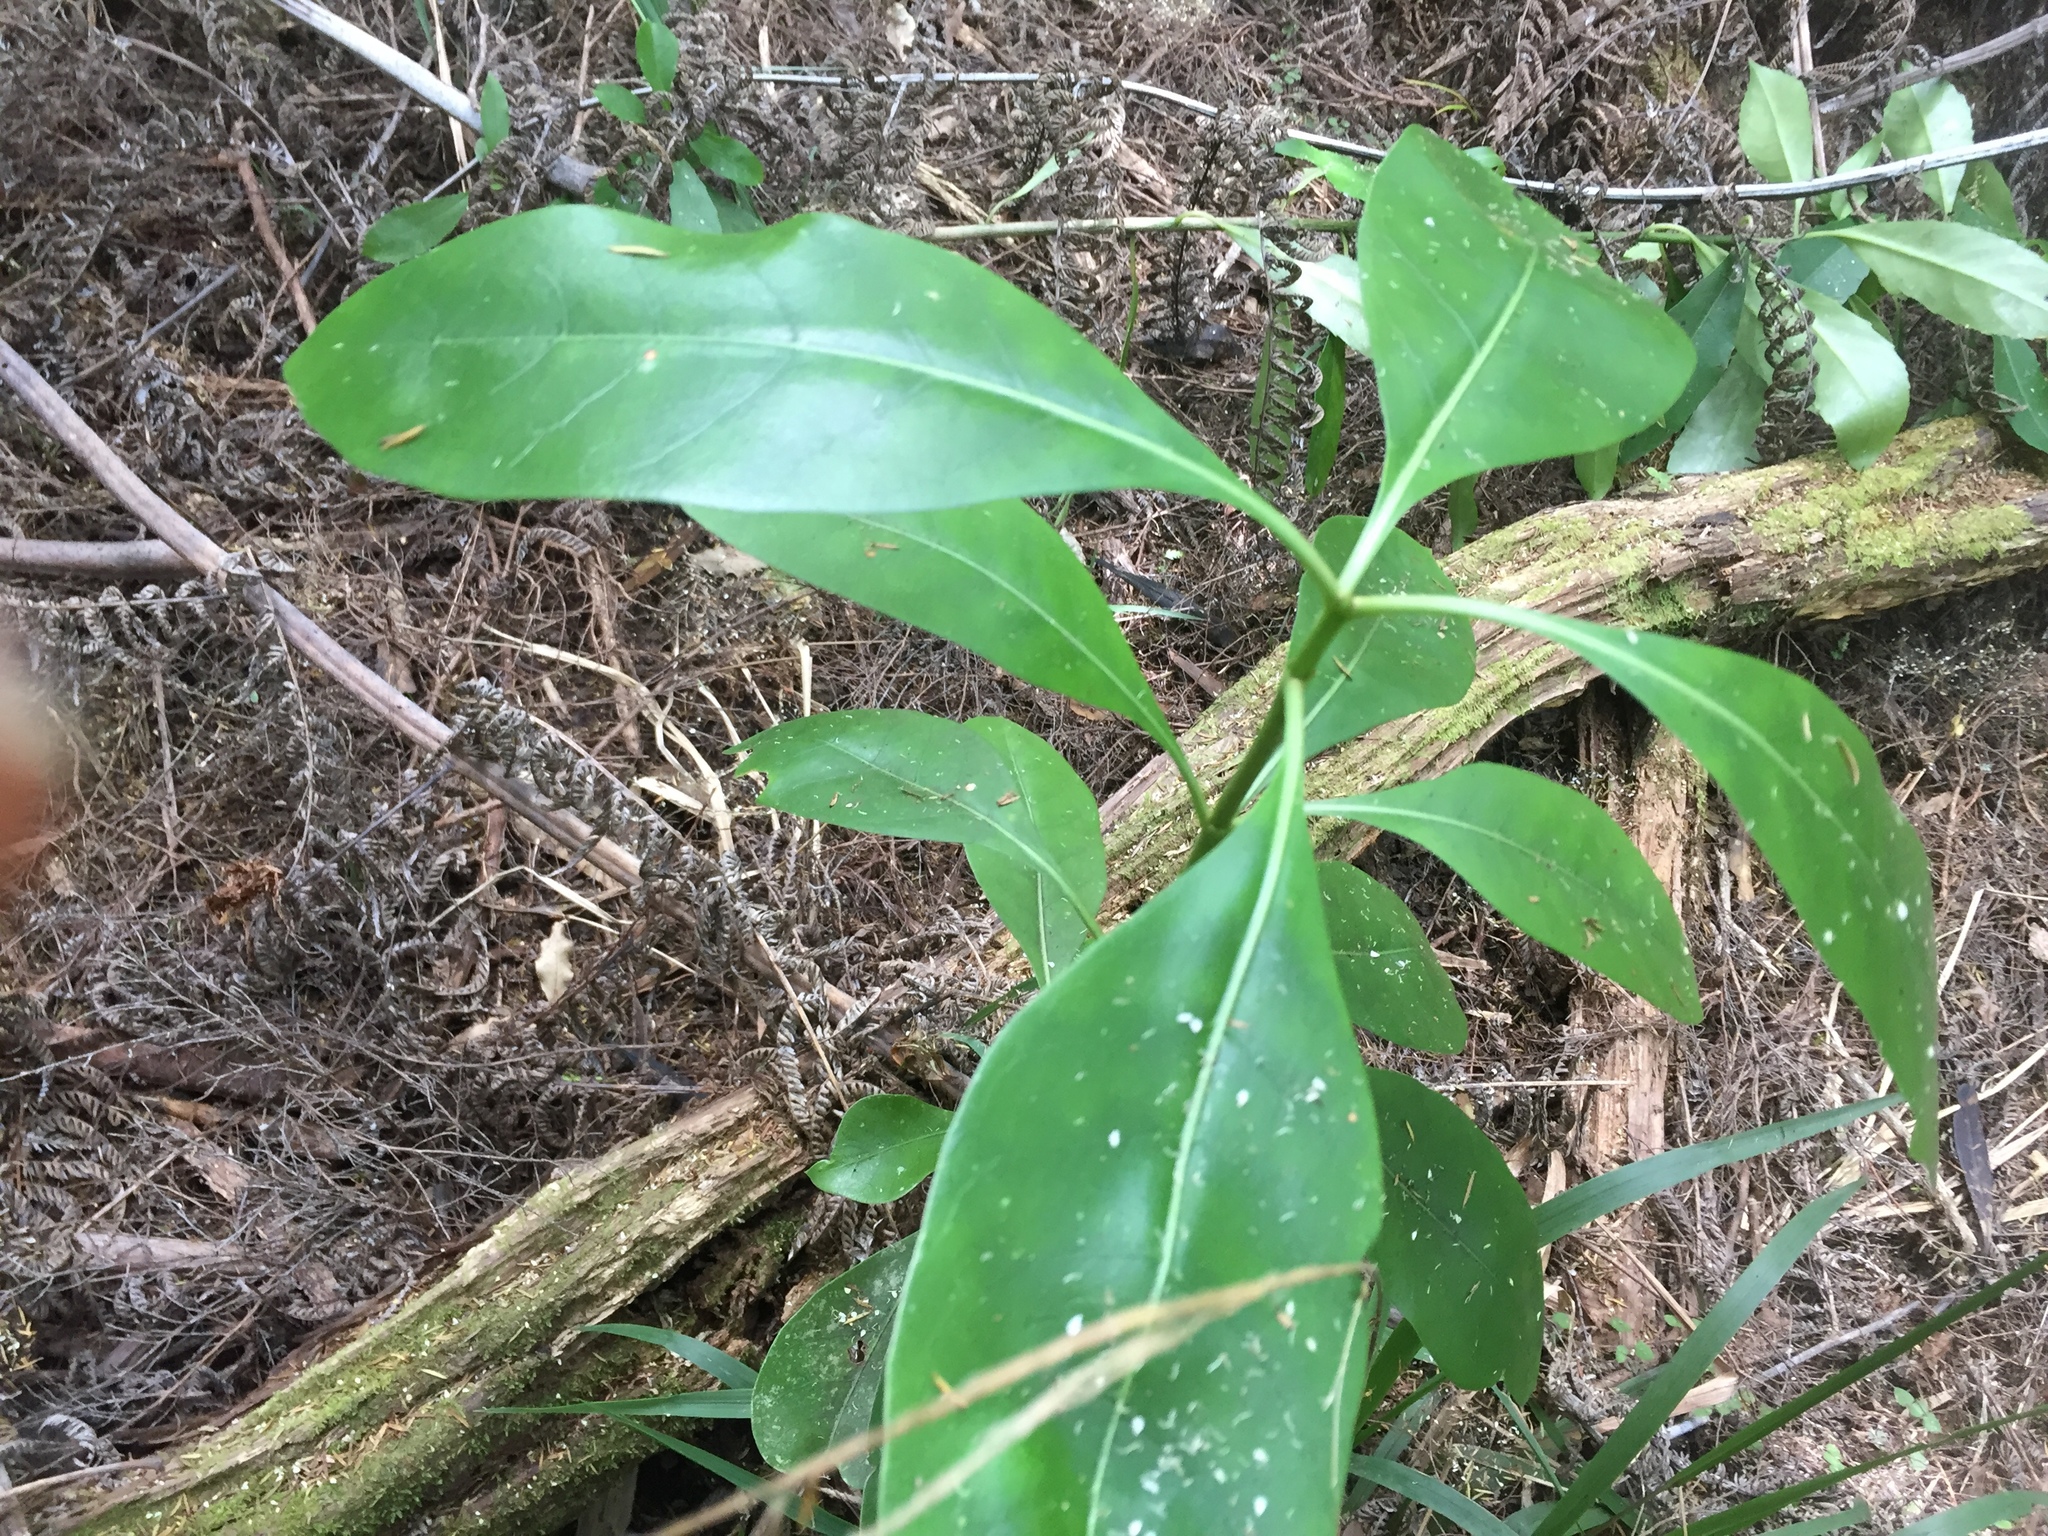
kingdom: Plantae
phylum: Tracheophyta
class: Magnoliopsida
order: Gentianales
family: Rubiaceae
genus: Coprosma
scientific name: Coprosma lucida
